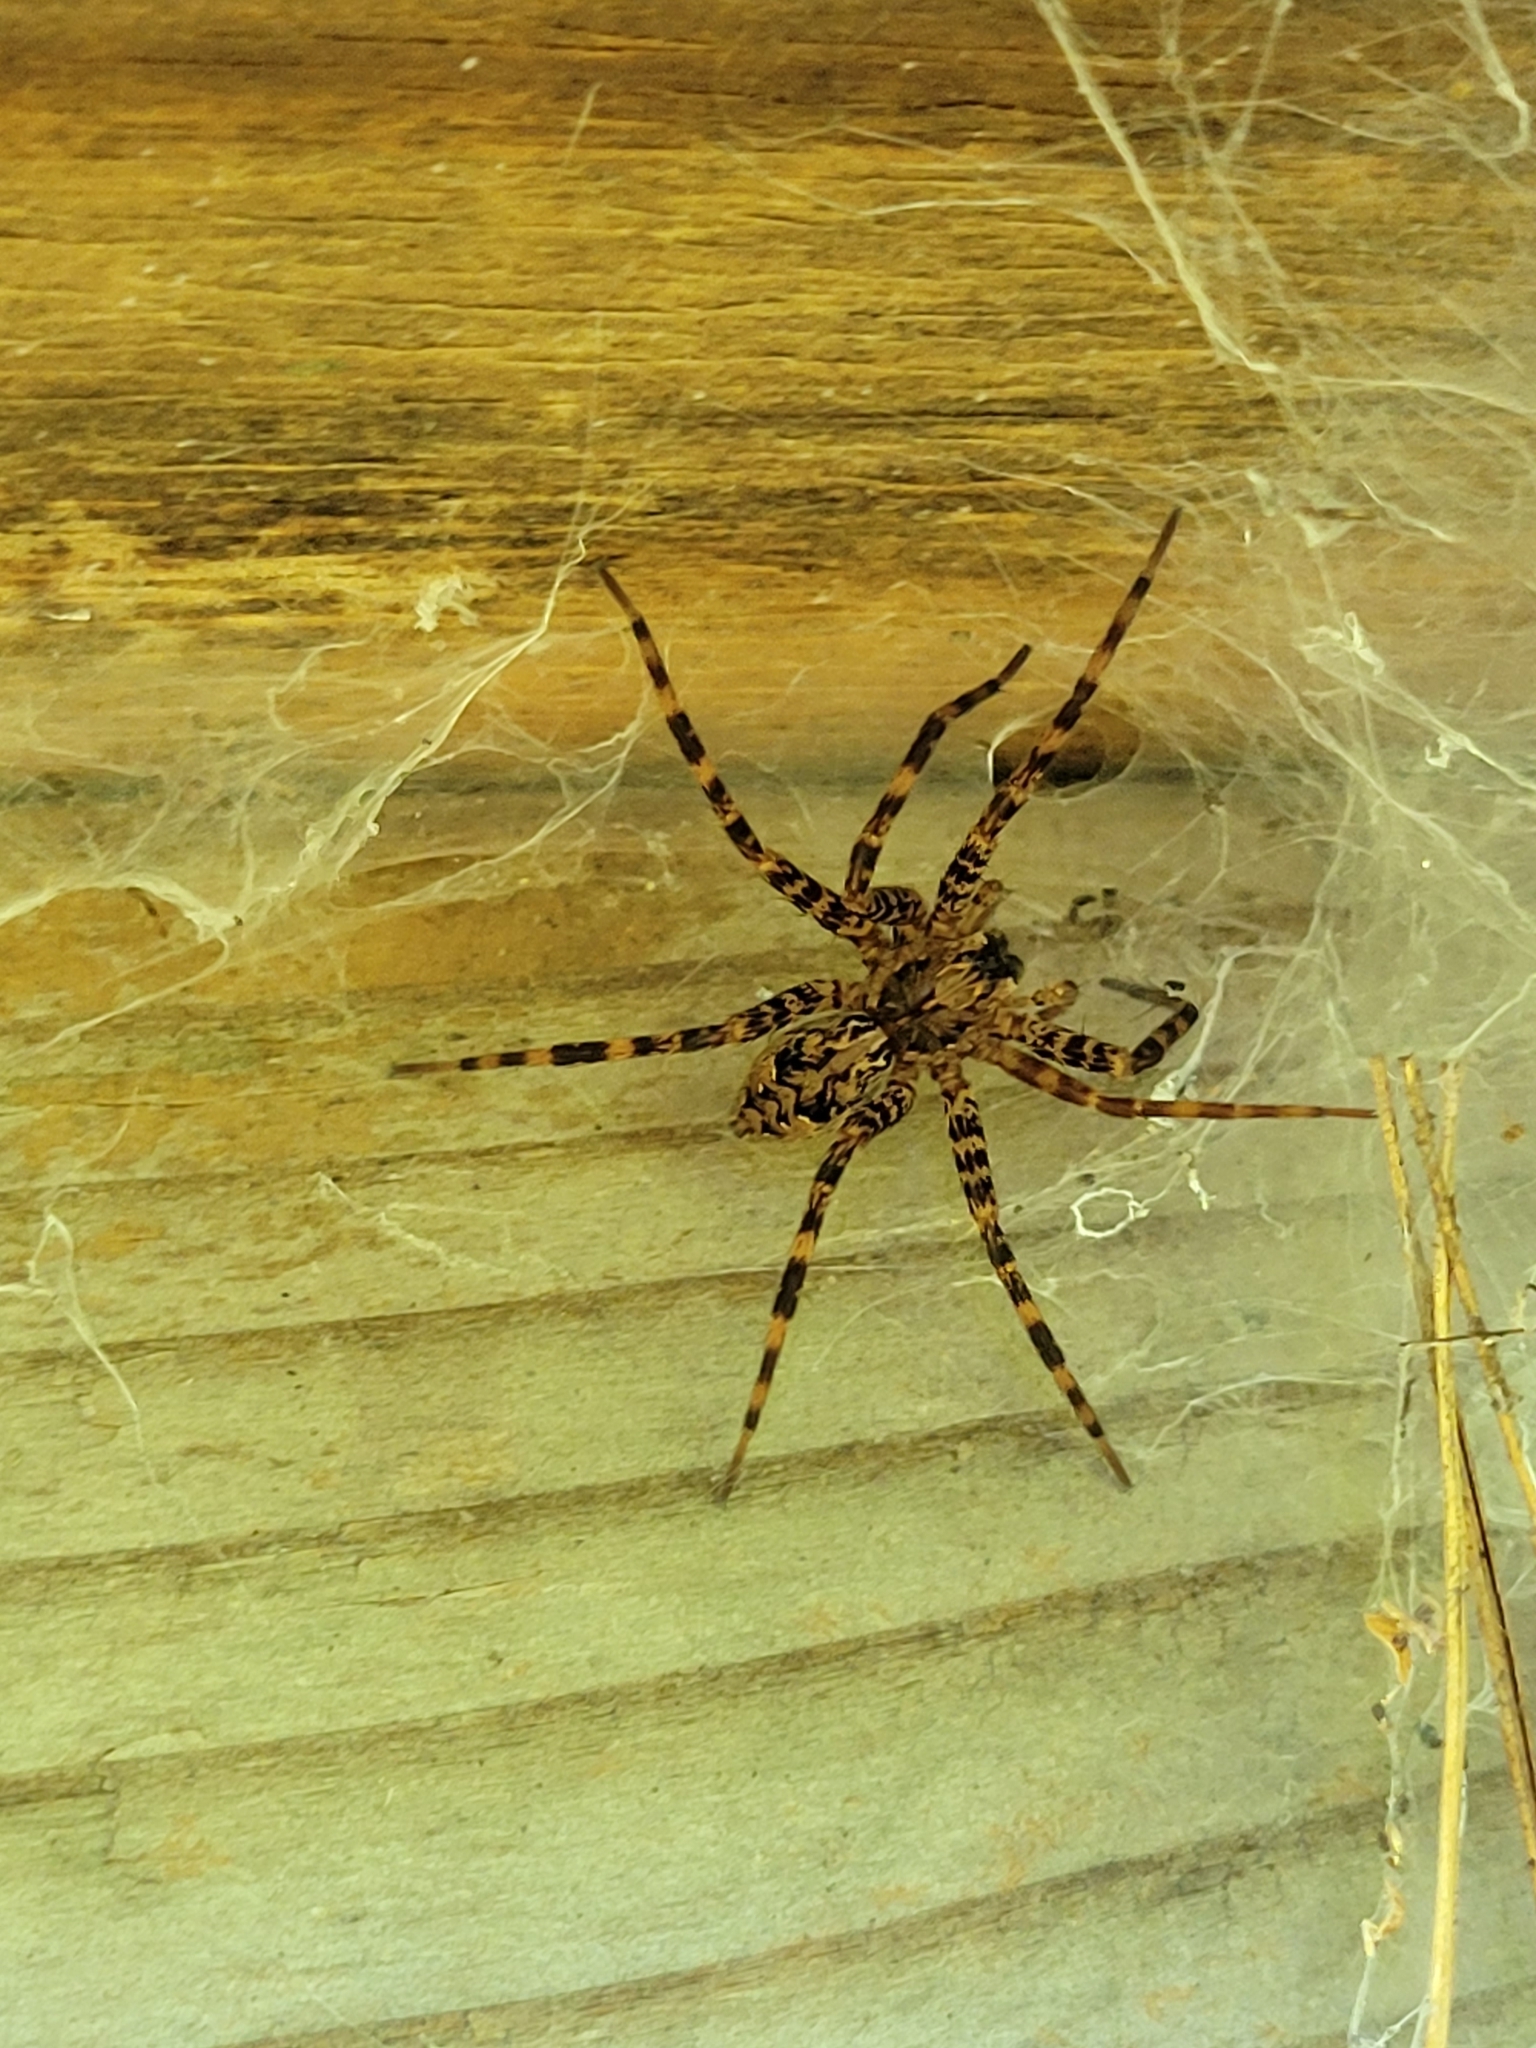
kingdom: Animalia
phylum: Arthropoda
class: Arachnida
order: Araneae
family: Pisauridae
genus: Dolomedes
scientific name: Dolomedes tenebrosus
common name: Dark fishing spider
